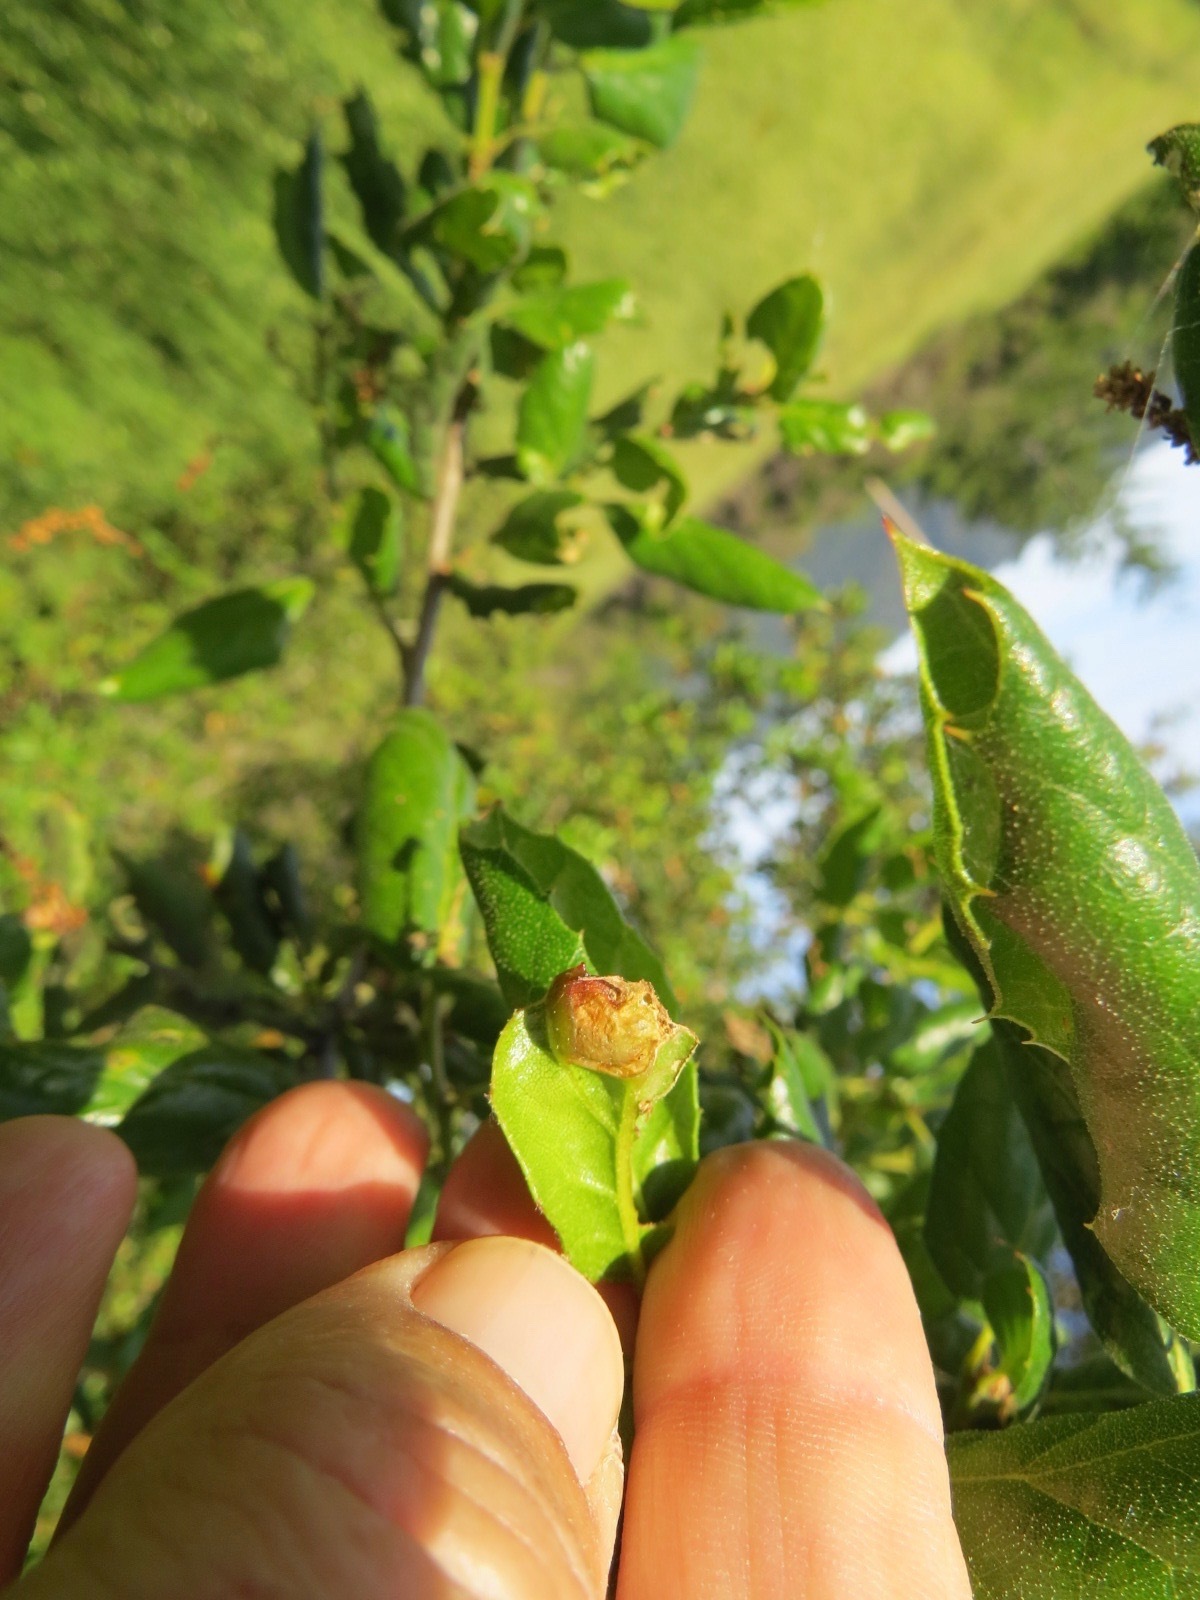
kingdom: Animalia
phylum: Arthropoda
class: Insecta
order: Hymenoptera
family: Cynipidae
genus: Callirhytis
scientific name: Callirhytis
